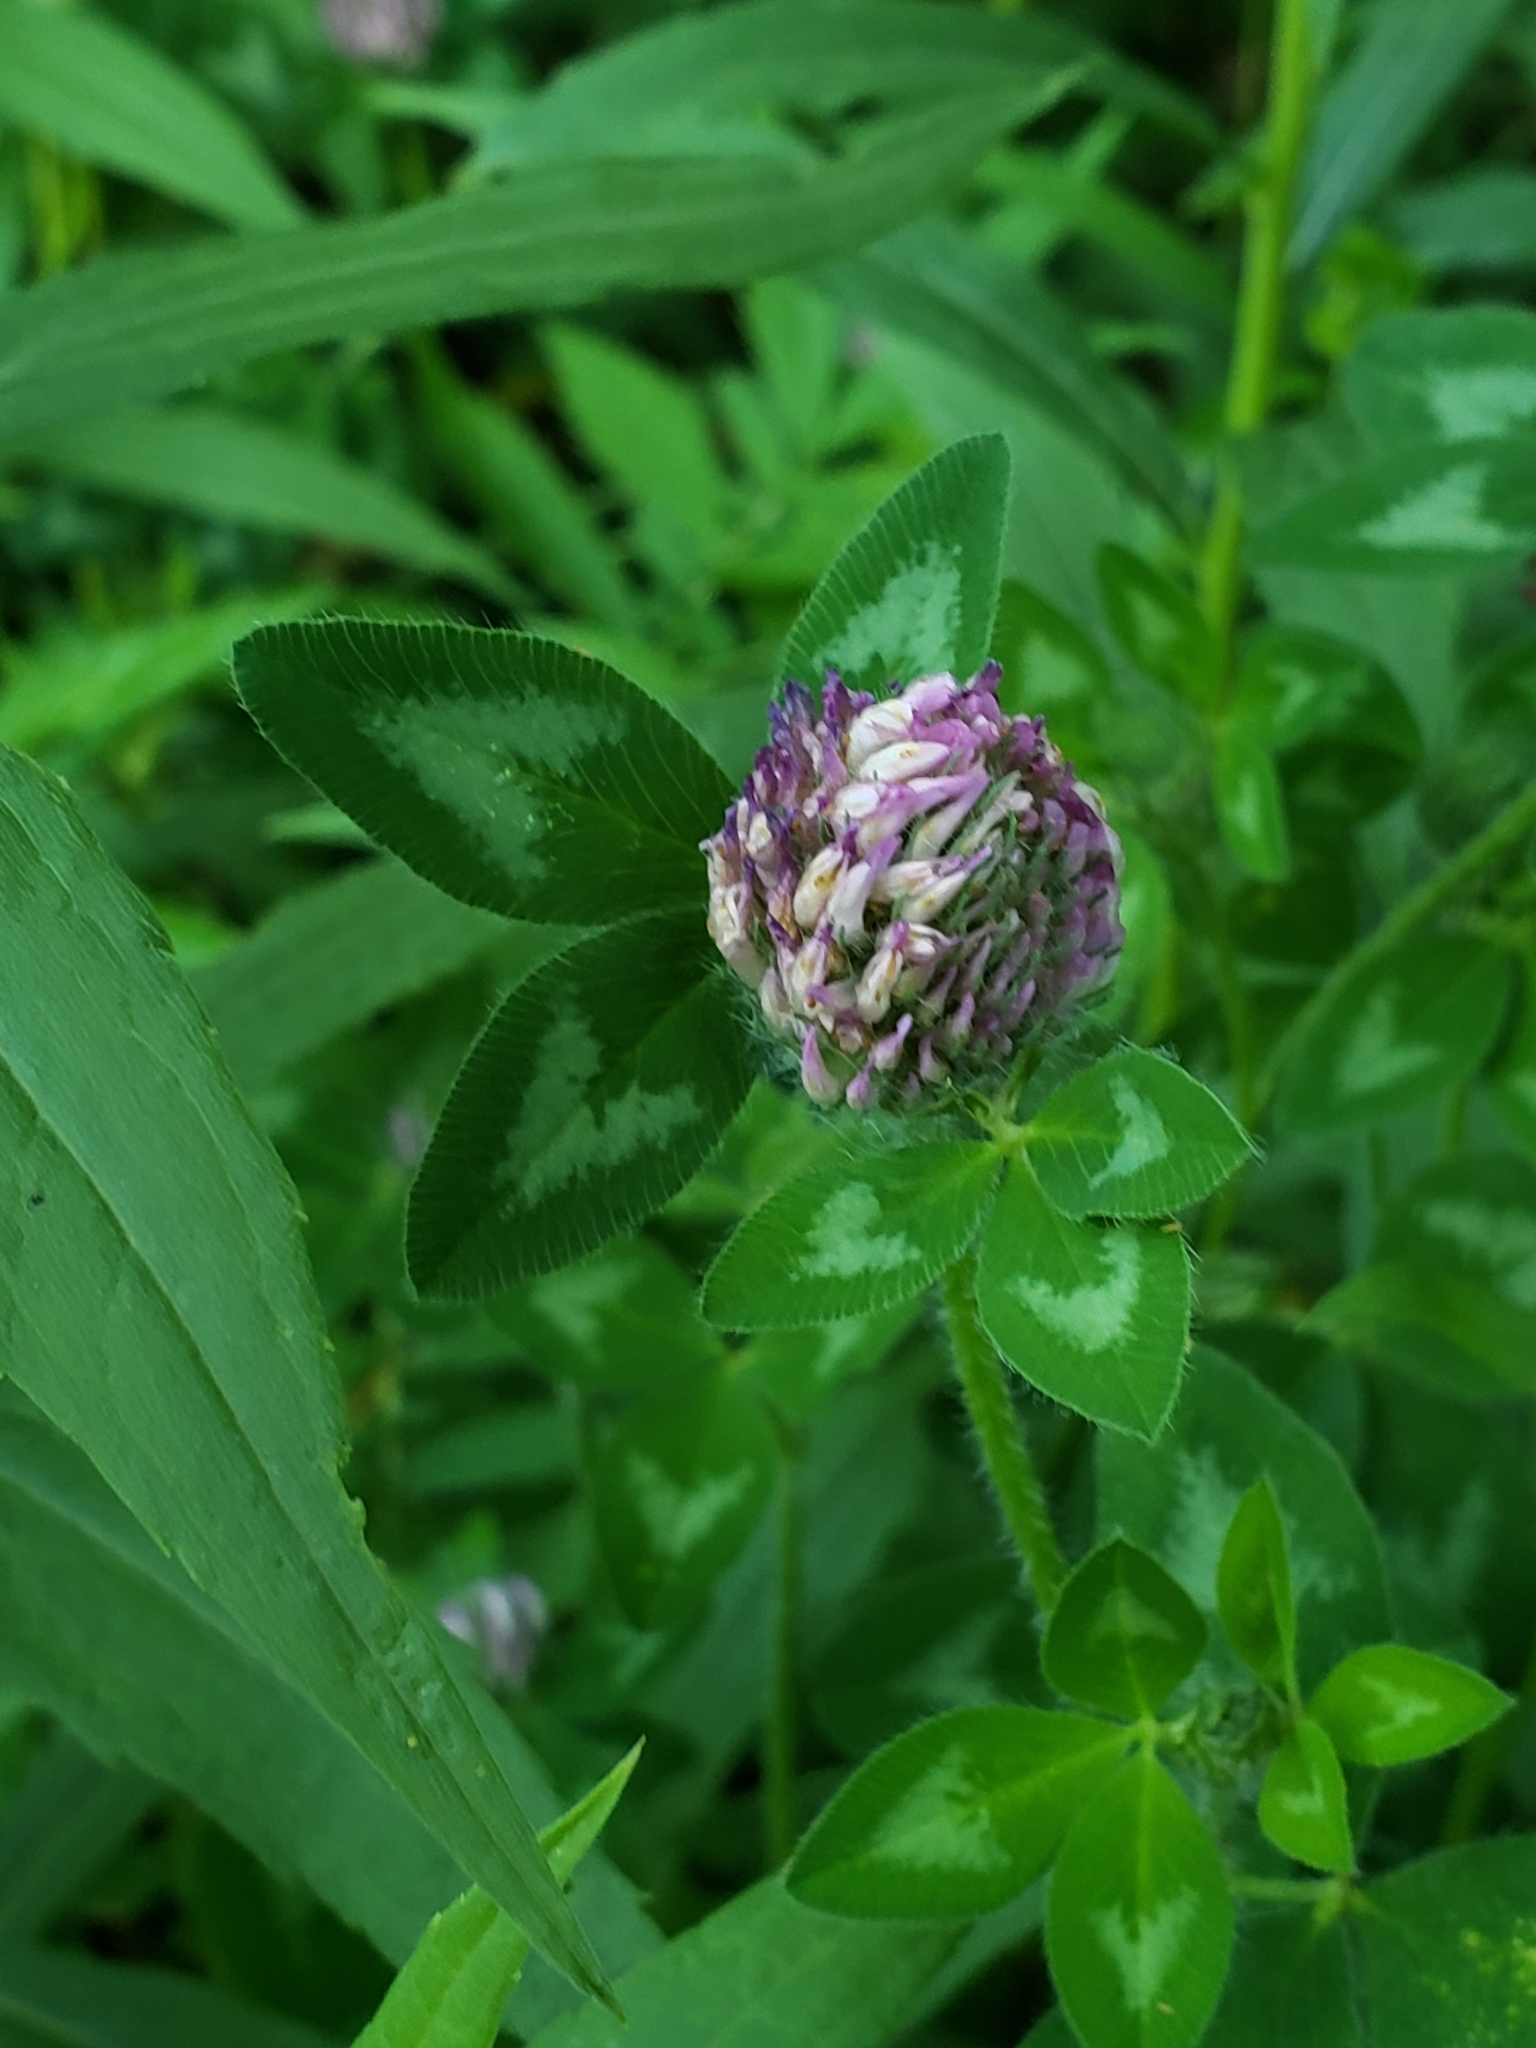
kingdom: Plantae
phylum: Tracheophyta
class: Magnoliopsida
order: Fabales
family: Fabaceae
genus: Trifolium
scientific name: Trifolium pratense
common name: Red clover
